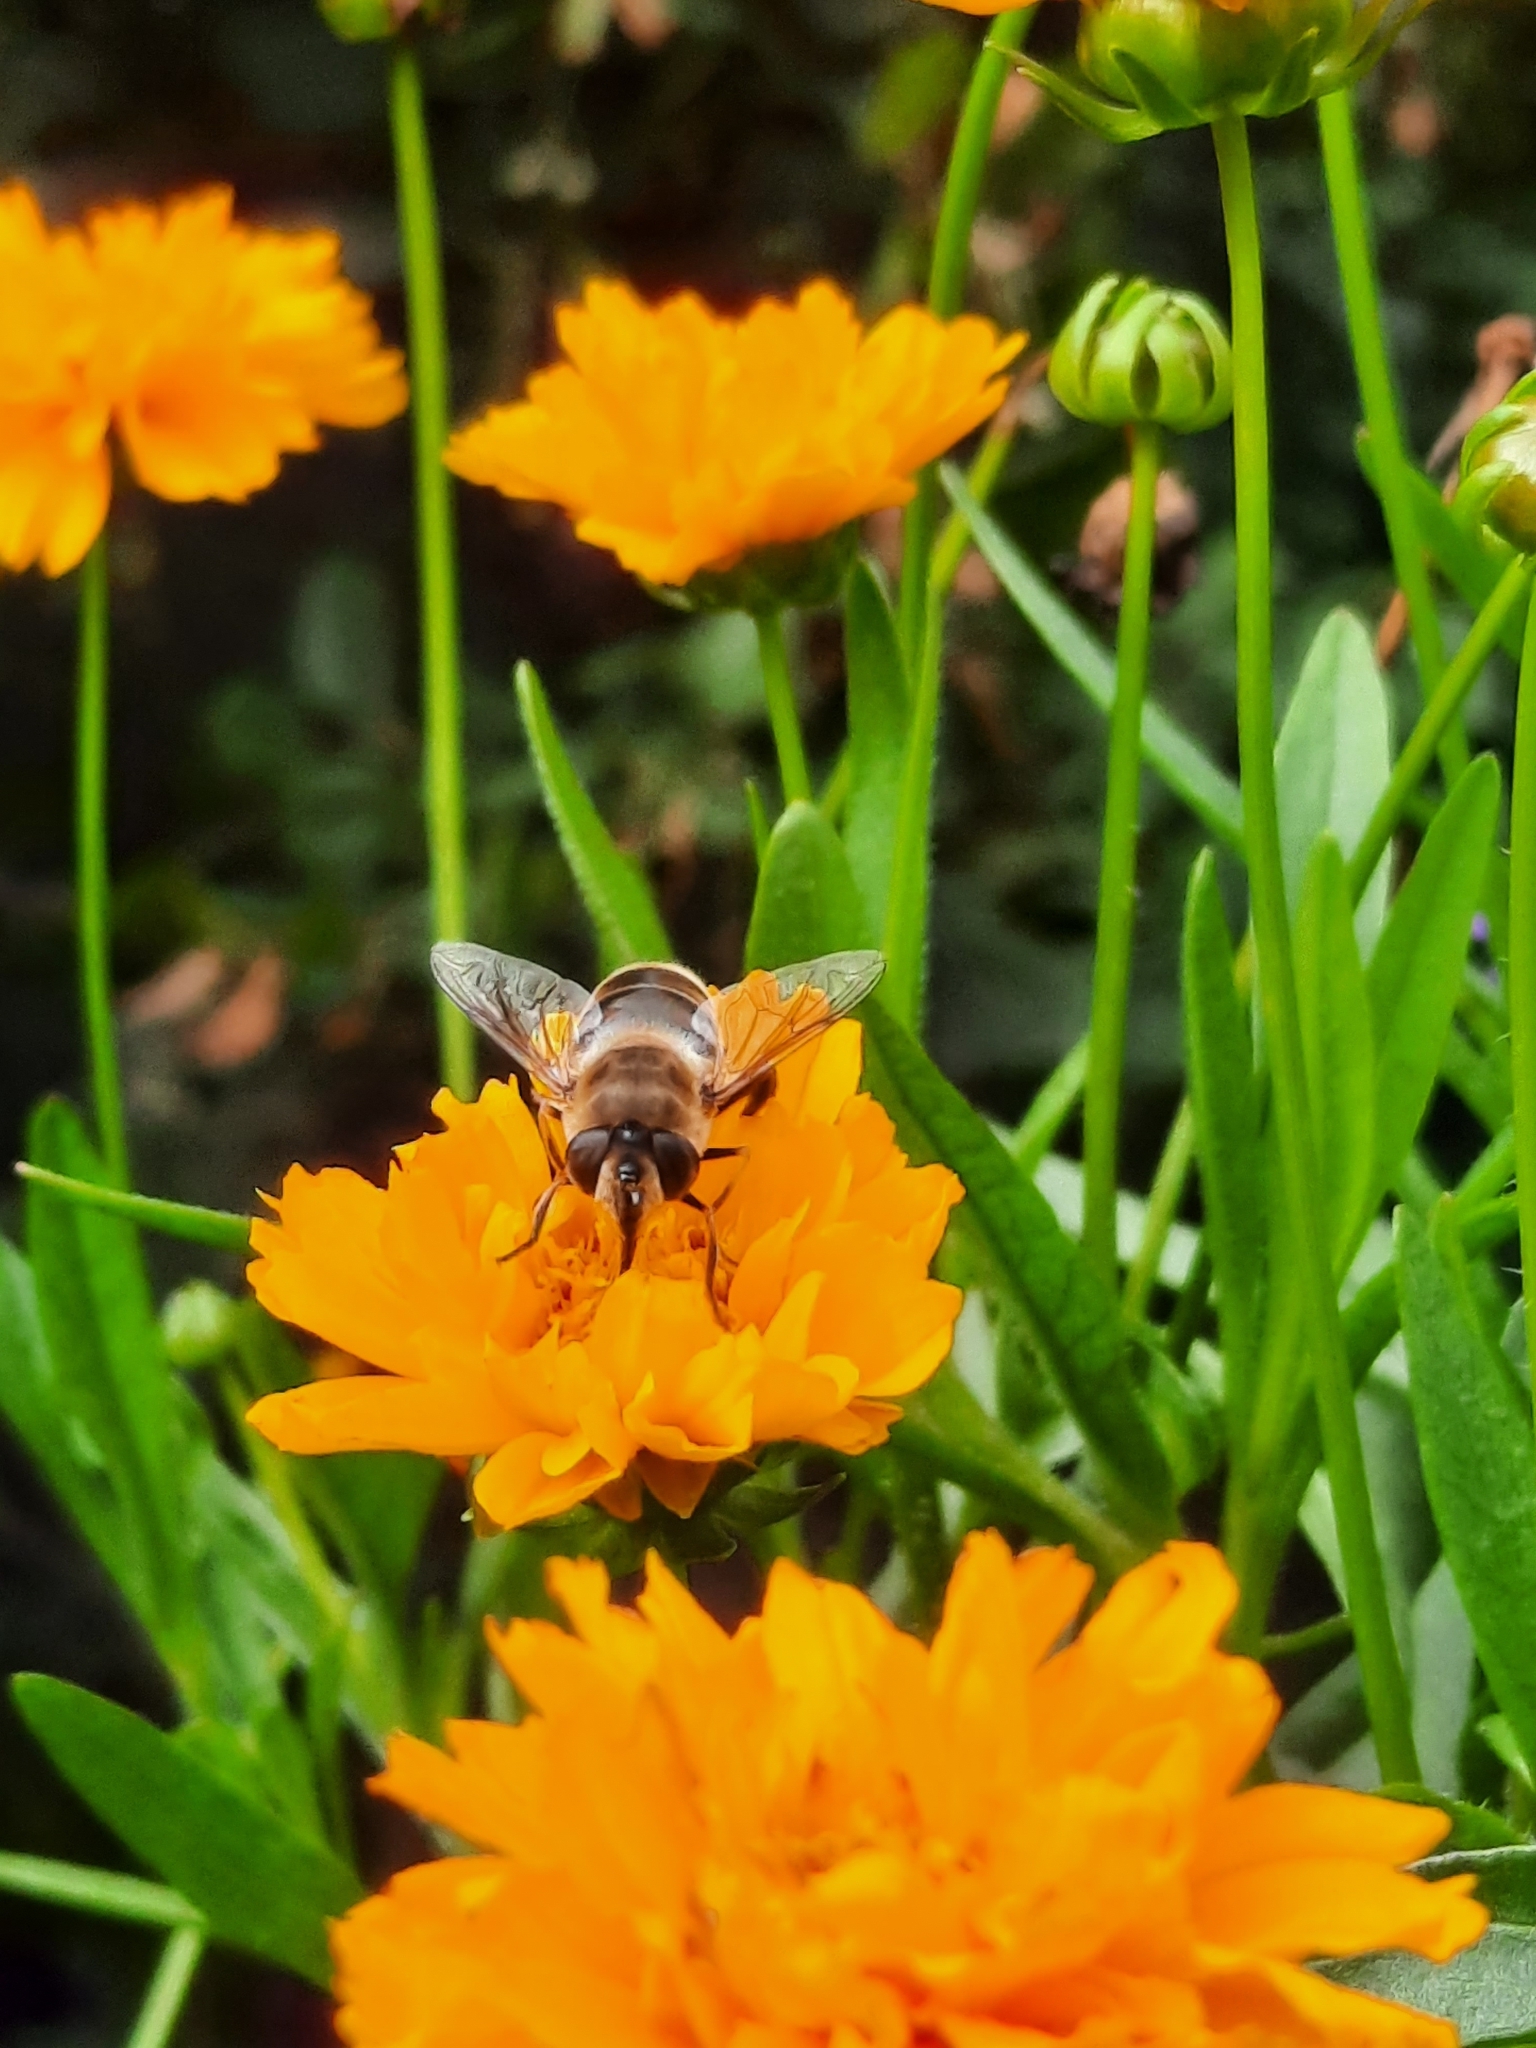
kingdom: Animalia
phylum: Arthropoda
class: Insecta
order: Diptera
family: Syrphidae
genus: Eristalis
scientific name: Eristalis tenax
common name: Drone fly
